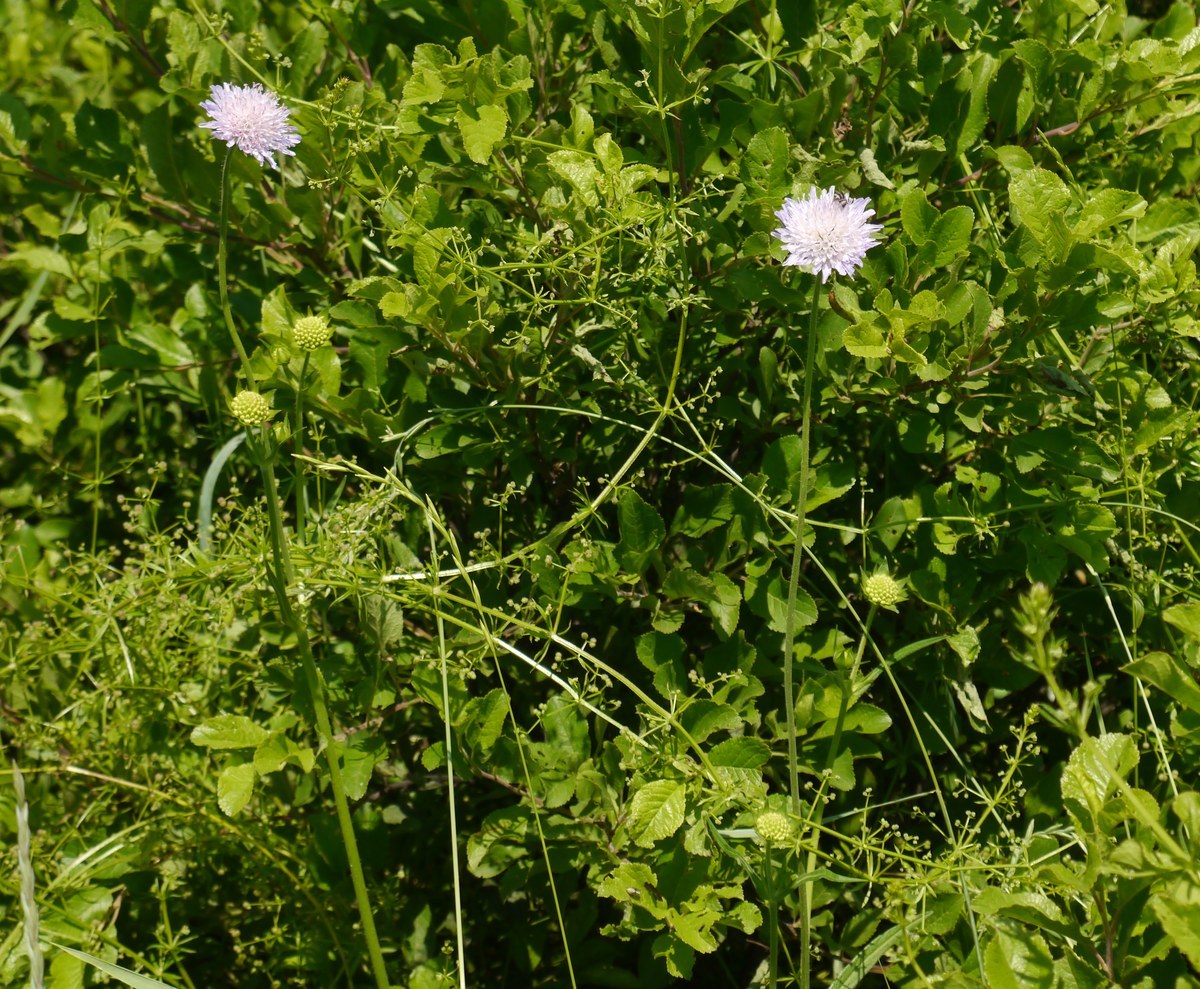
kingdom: Plantae
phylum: Tracheophyta
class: Magnoliopsida
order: Dipsacales
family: Caprifoliaceae
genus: Knautia
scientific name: Knautia arvensis
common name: Field scabiosa
